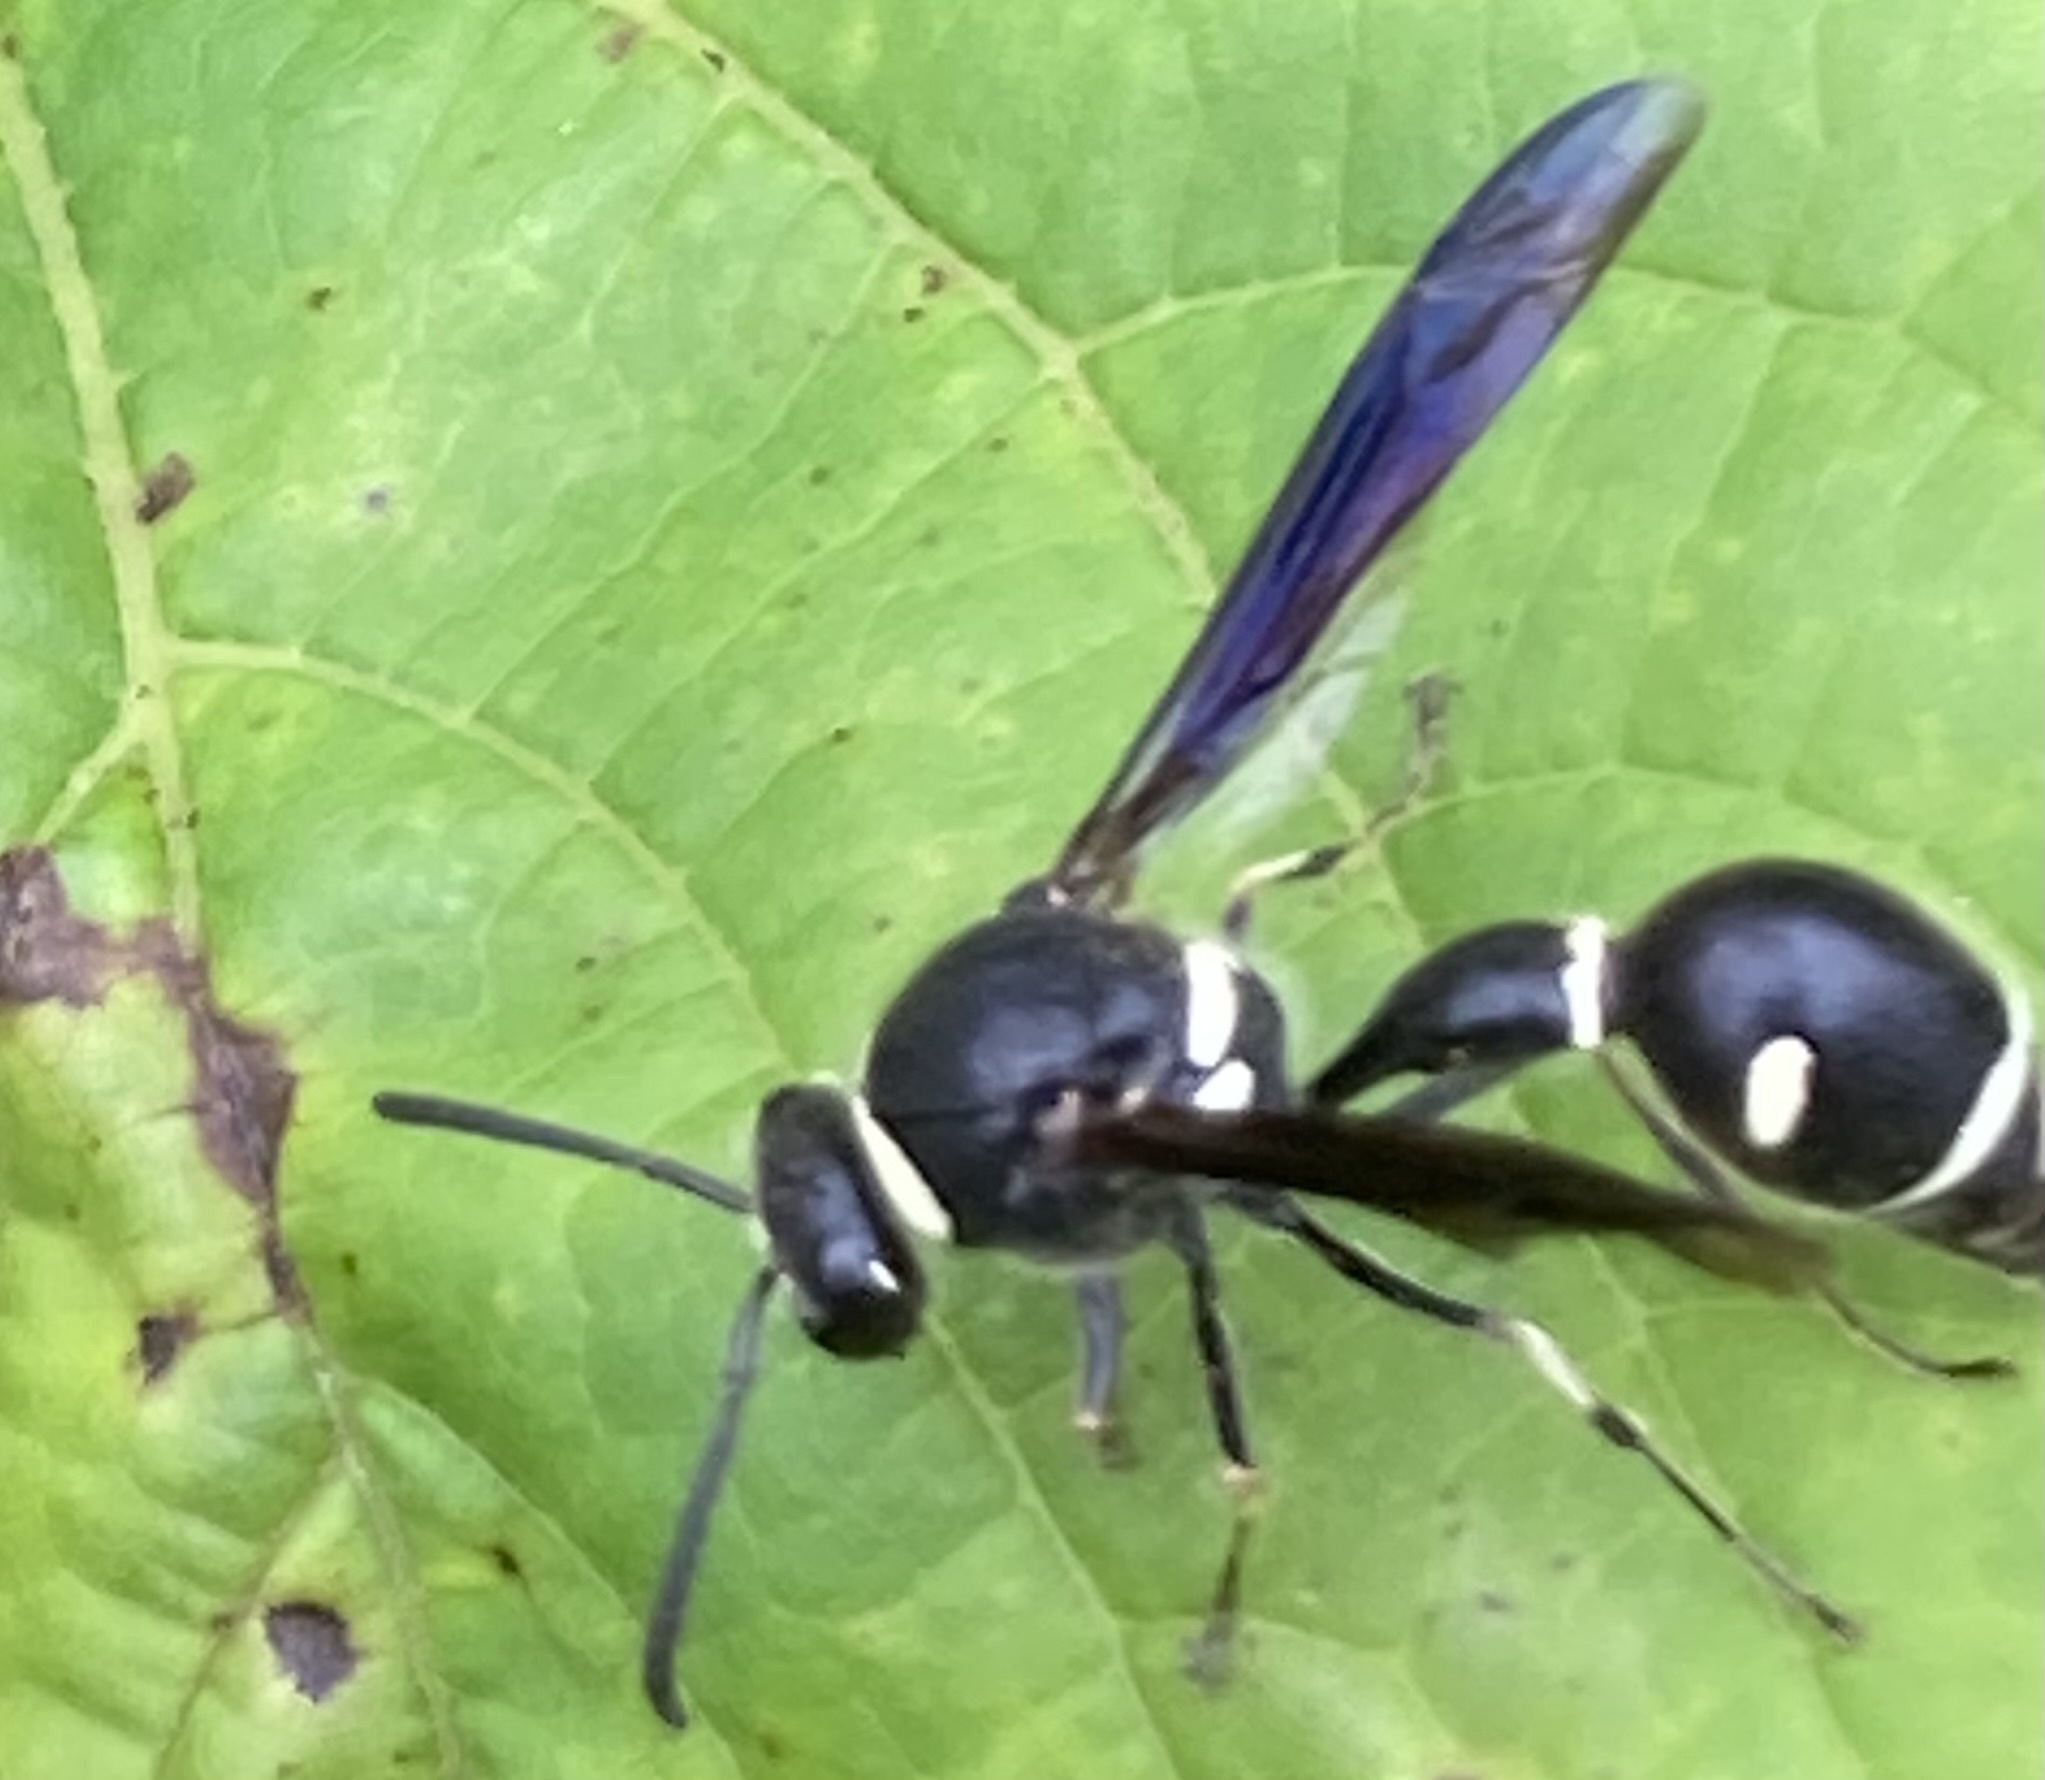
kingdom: Animalia
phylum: Arthropoda
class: Insecta
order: Hymenoptera
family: Vespidae
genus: Eumenes
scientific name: Eumenes fraternus
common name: Fraternal potter wasp
